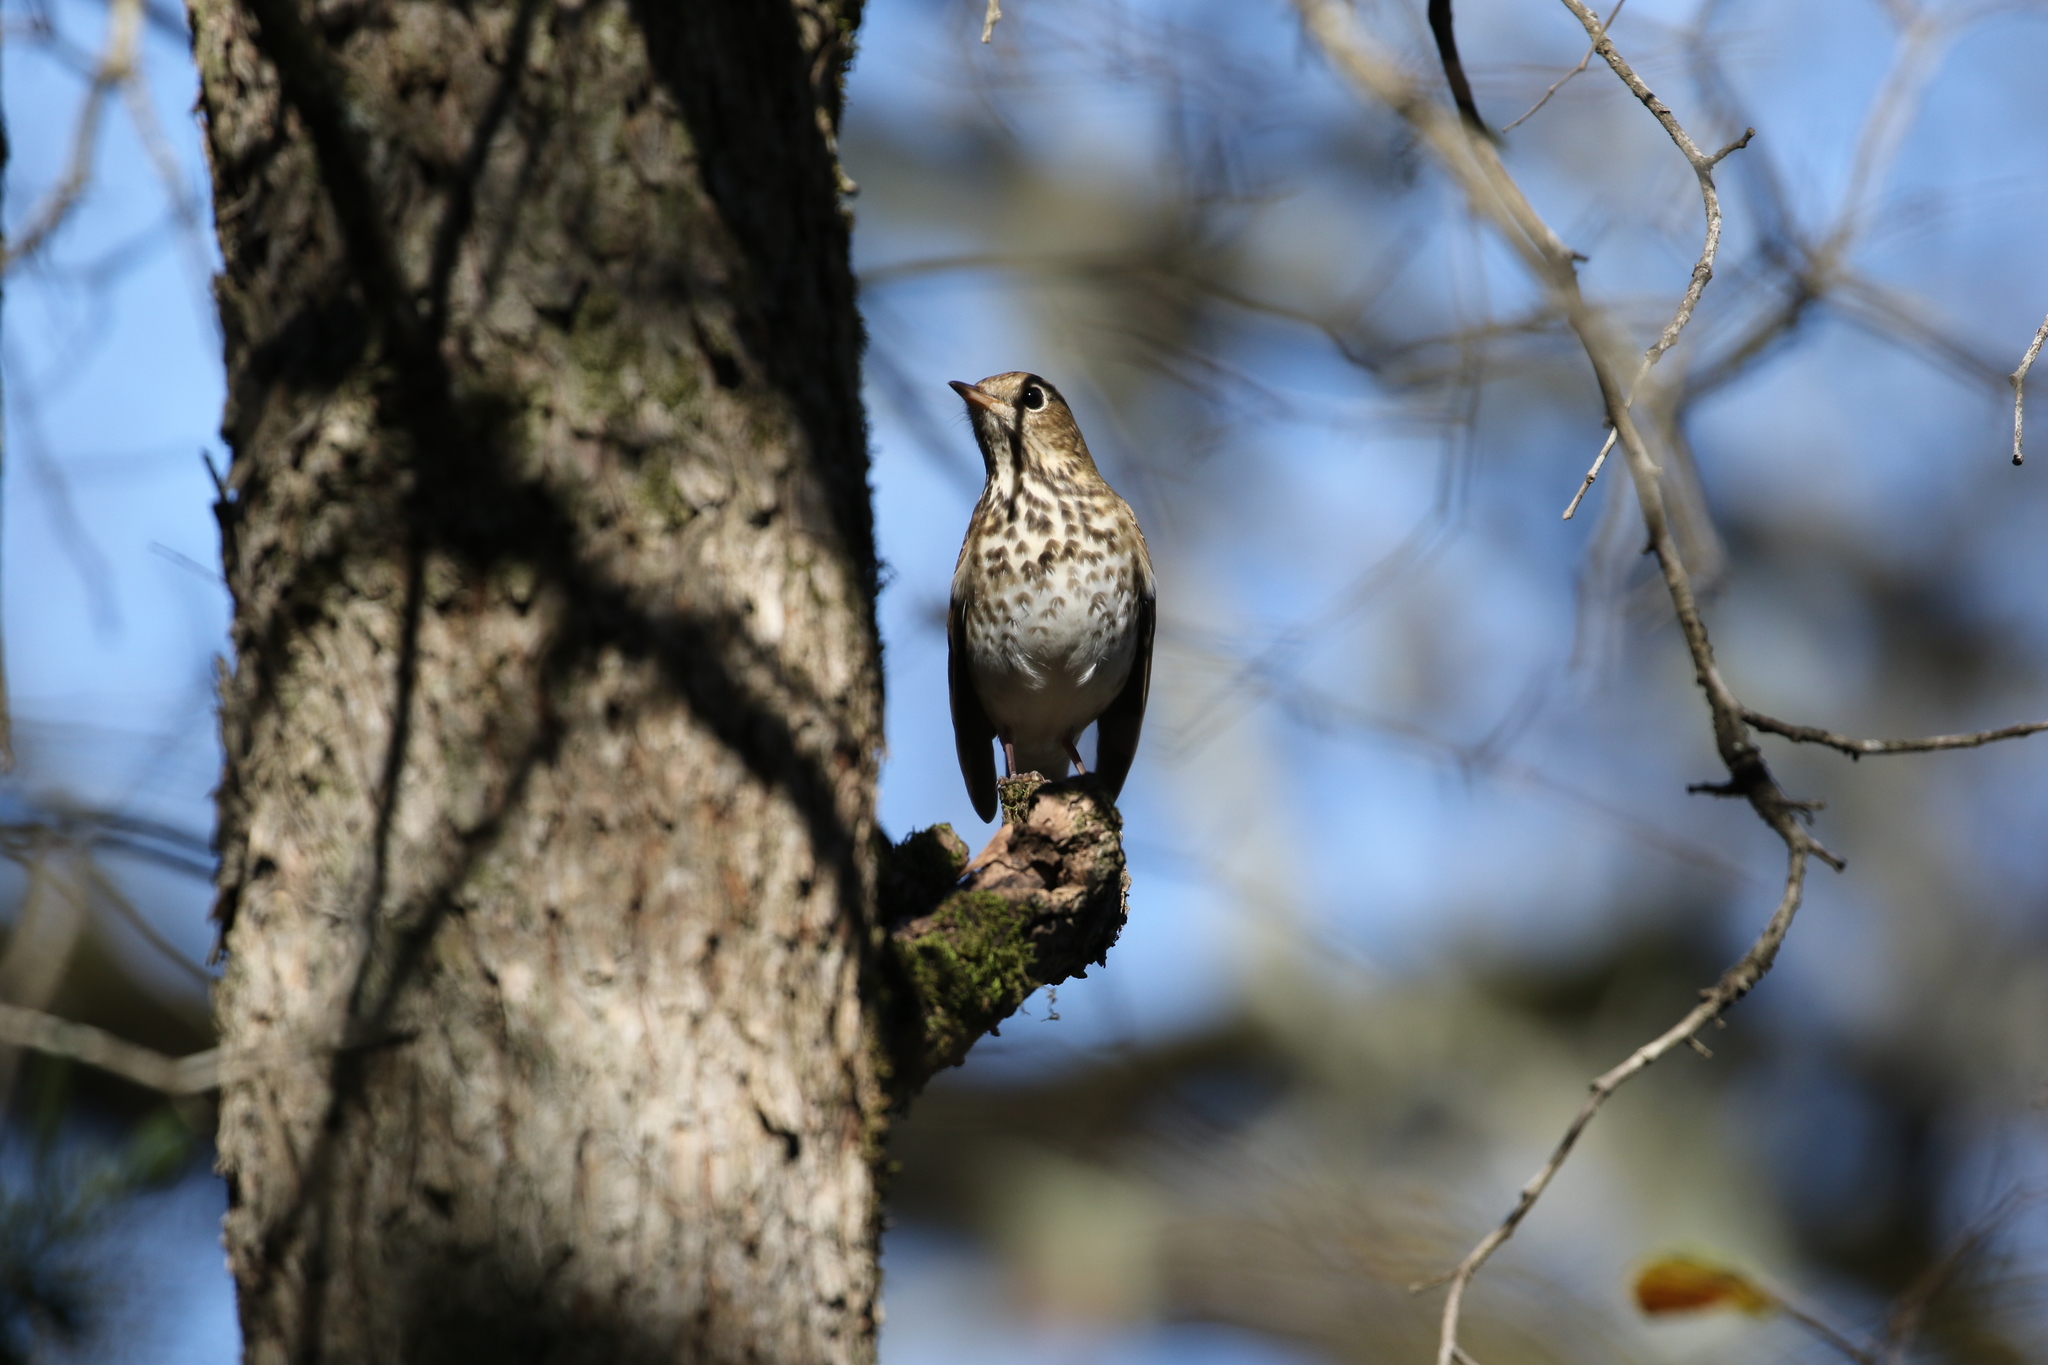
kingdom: Animalia
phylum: Chordata
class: Aves
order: Passeriformes
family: Turdidae
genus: Catharus
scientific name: Catharus guttatus
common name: Hermit thrush
